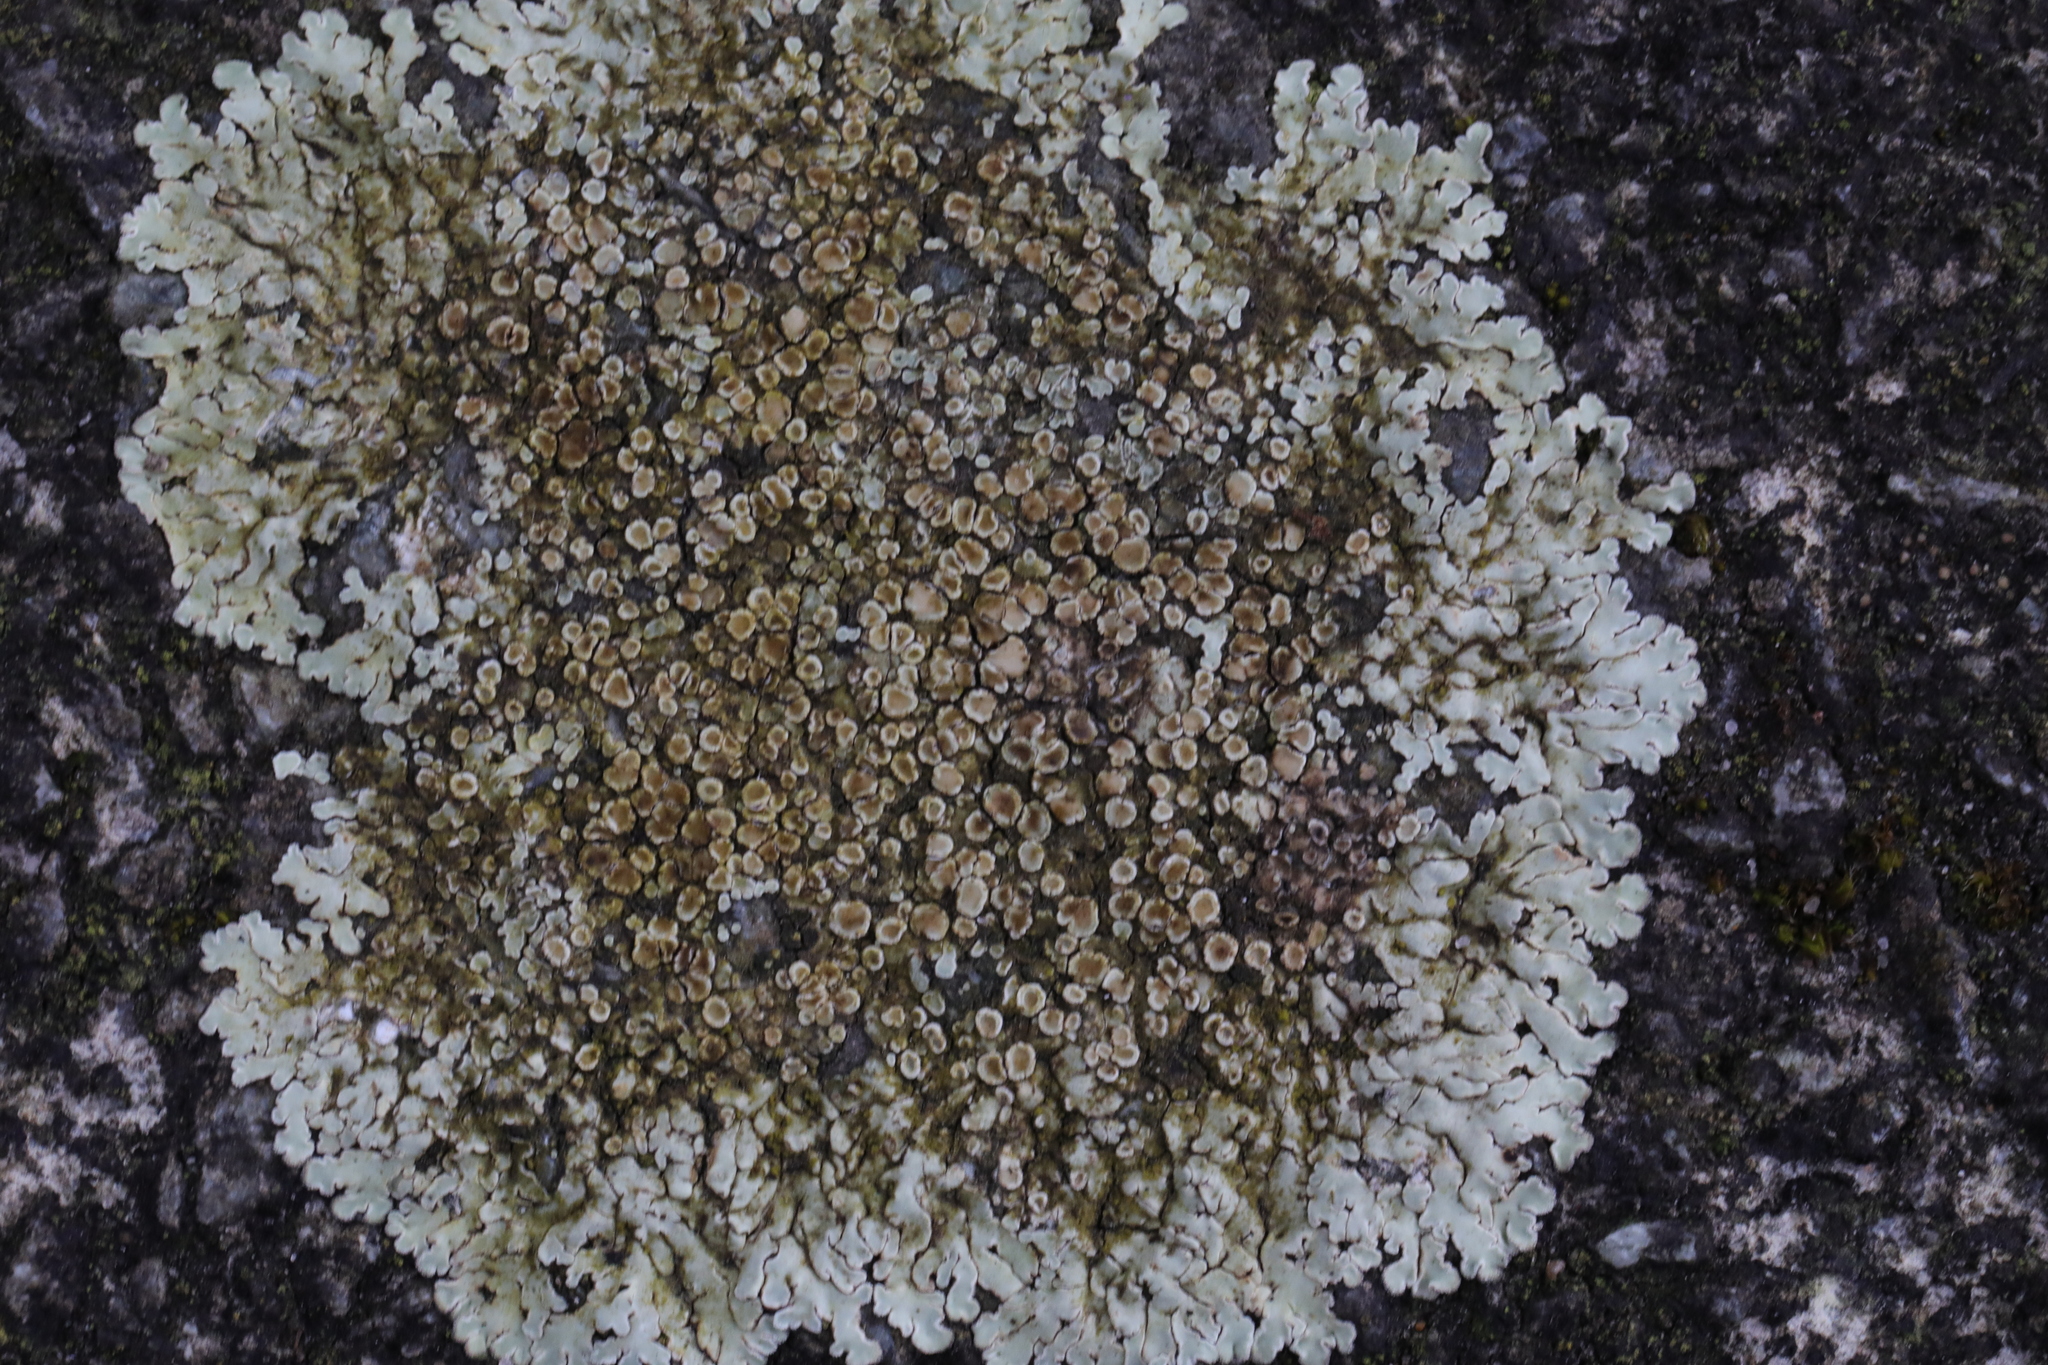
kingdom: Fungi
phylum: Ascomycota
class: Lecanoromycetes
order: Lecanorales
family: Lecanoraceae
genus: Protoparmeliopsis
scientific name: Protoparmeliopsis muralis
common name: Stonewall rim lichen
